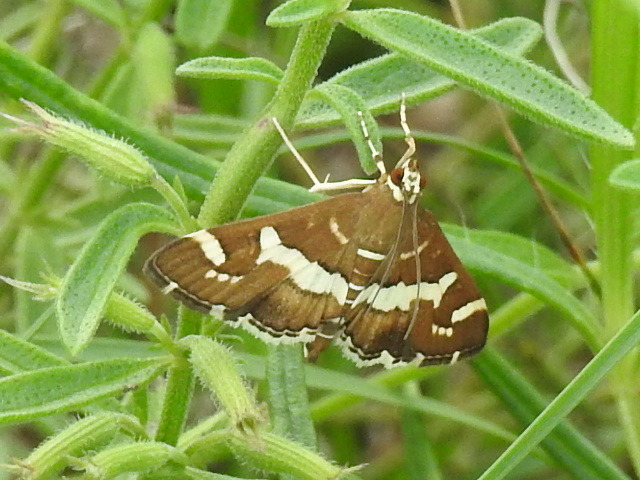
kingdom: Animalia
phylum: Arthropoda
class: Insecta
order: Lepidoptera
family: Crambidae
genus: Spoladea
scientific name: Spoladea recurvalis
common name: Beet webworm moth
